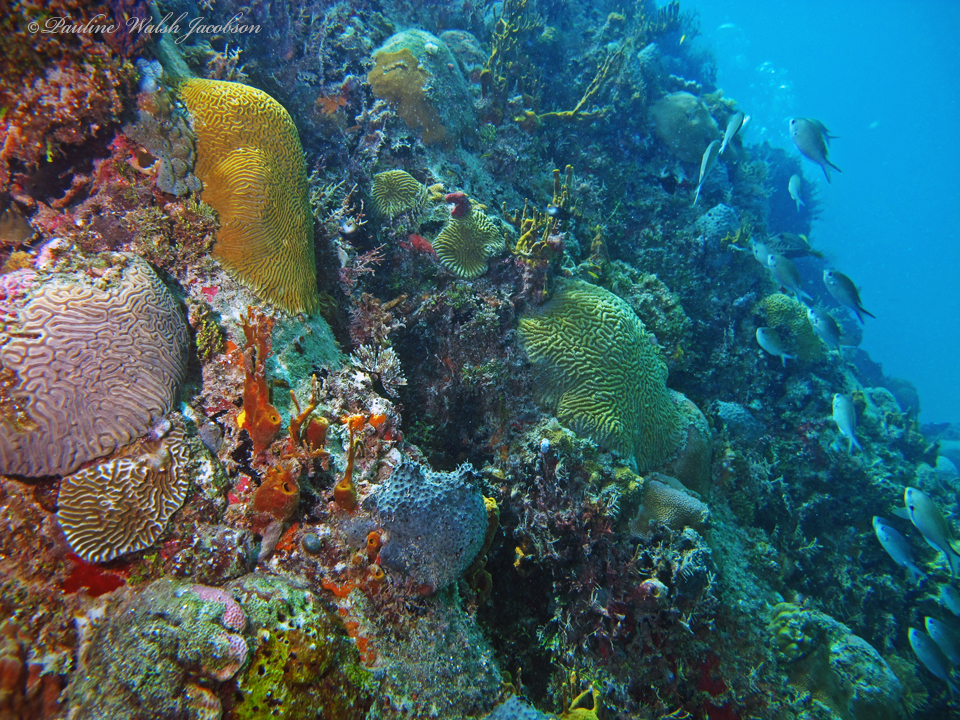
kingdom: Animalia
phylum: Chordata
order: Perciformes
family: Pomacentridae
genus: Chromis
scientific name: Chromis multilineata
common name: Brown chromis
